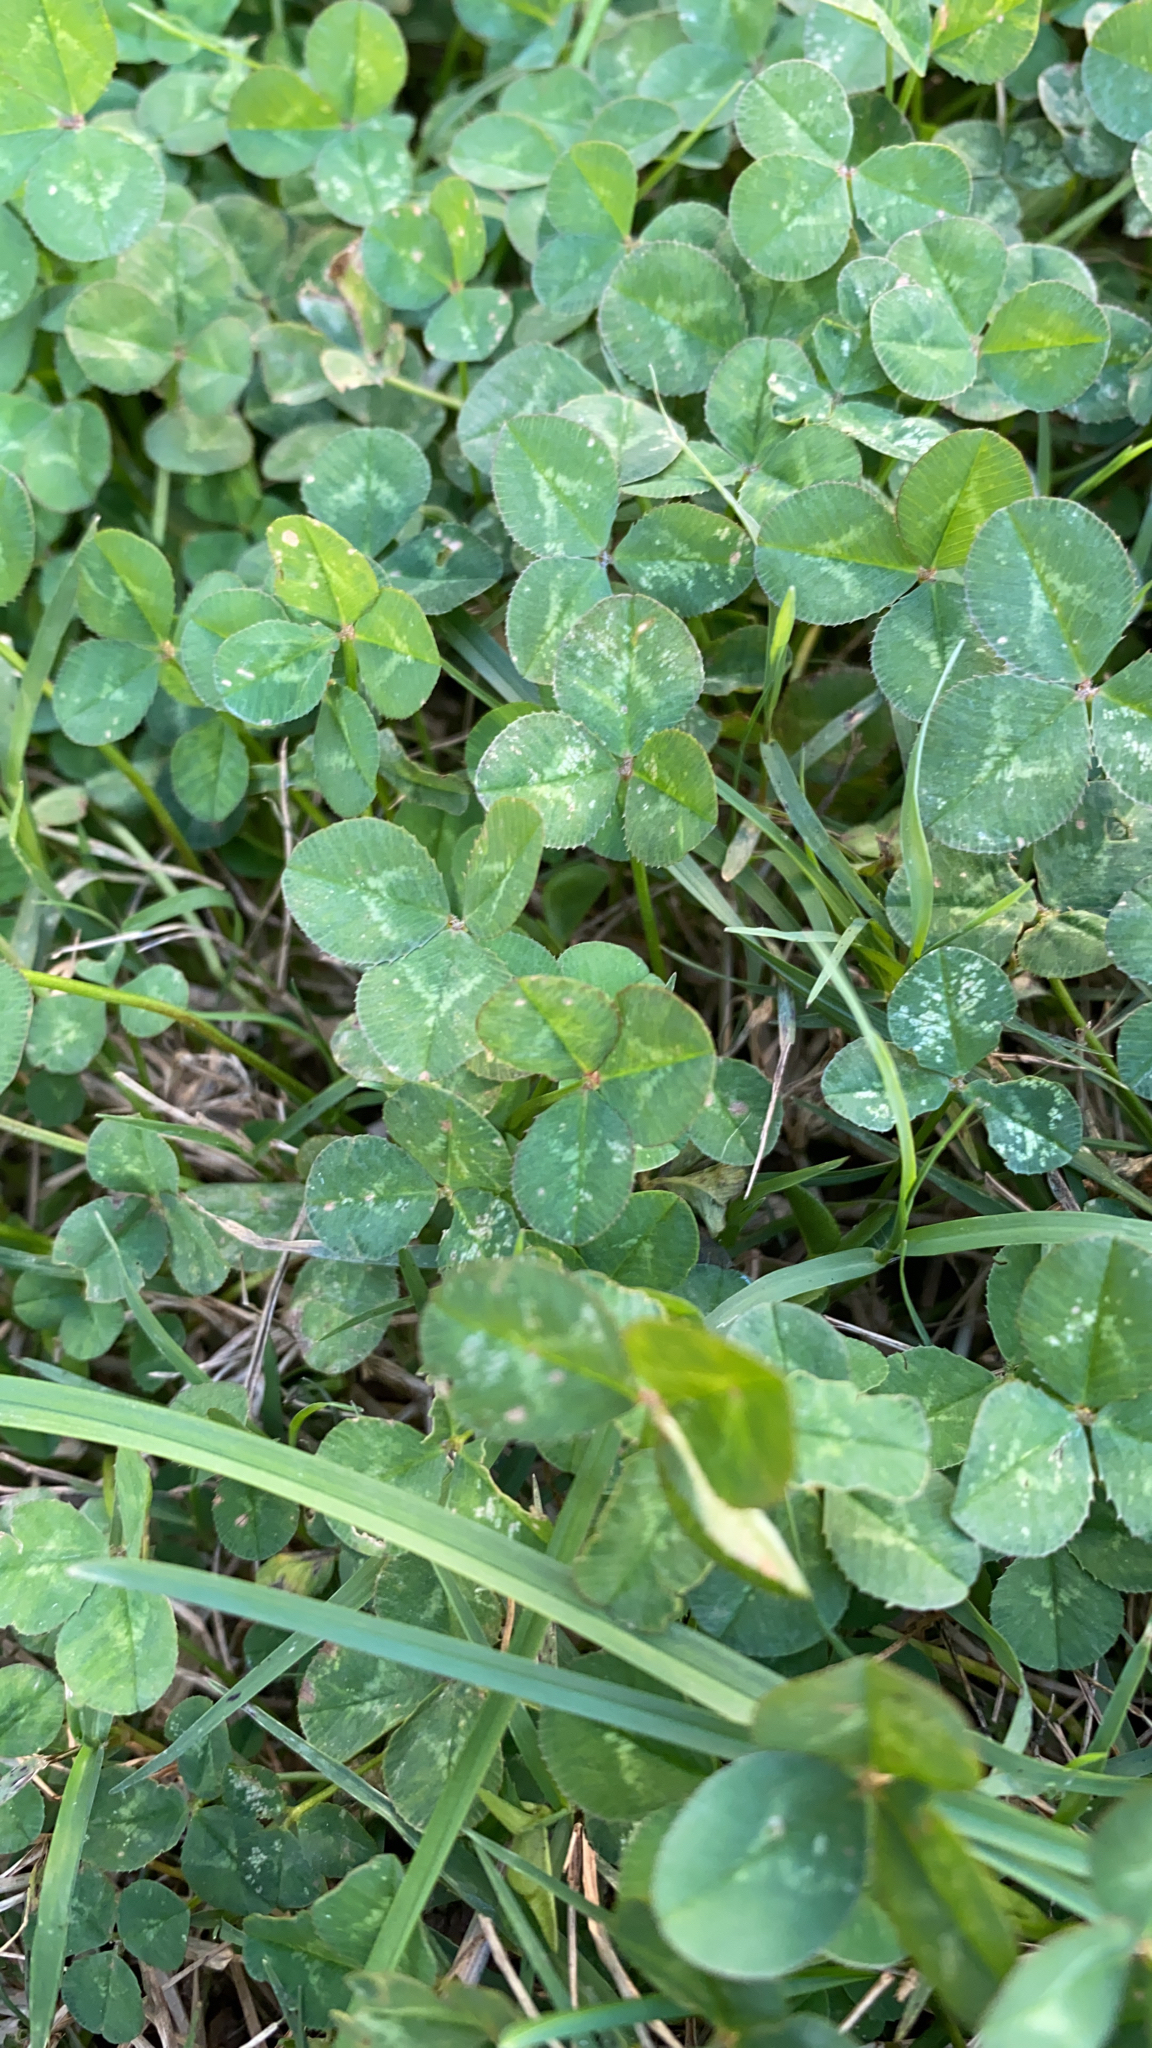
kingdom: Plantae
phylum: Tracheophyta
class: Magnoliopsida
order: Fabales
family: Fabaceae
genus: Trifolium
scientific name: Trifolium repens
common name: White clover
